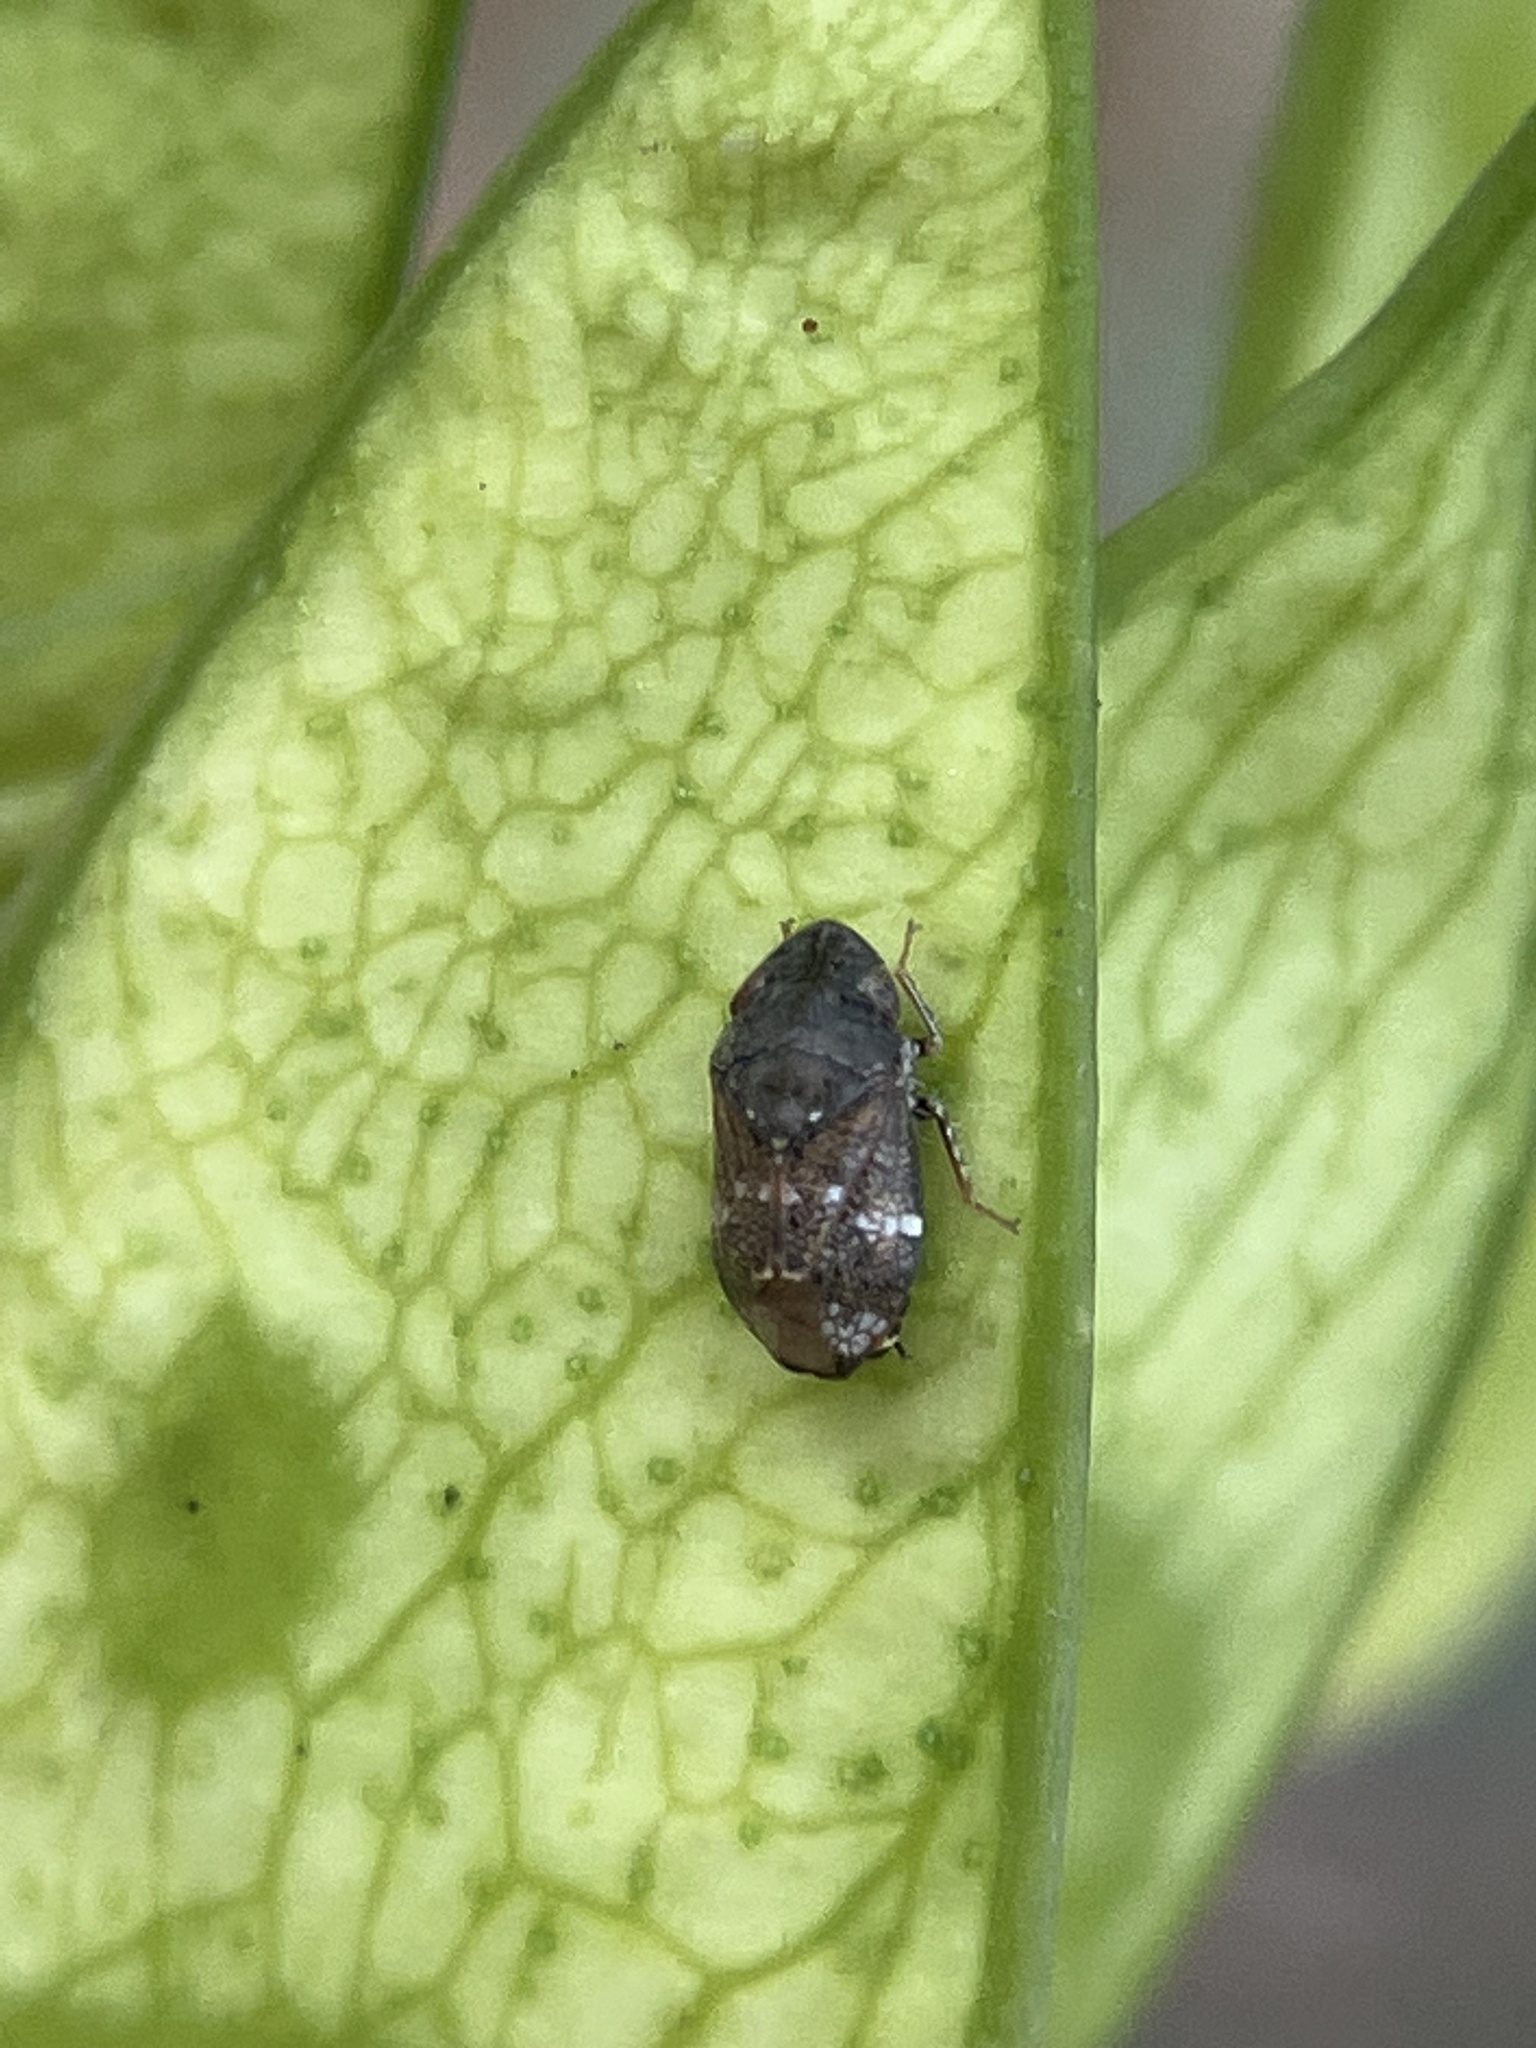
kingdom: Animalia
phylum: Arthropoda
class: Insecta
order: Hemiptera
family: Cicadellidae
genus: Neodartus
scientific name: Neodartus acocephaloides
